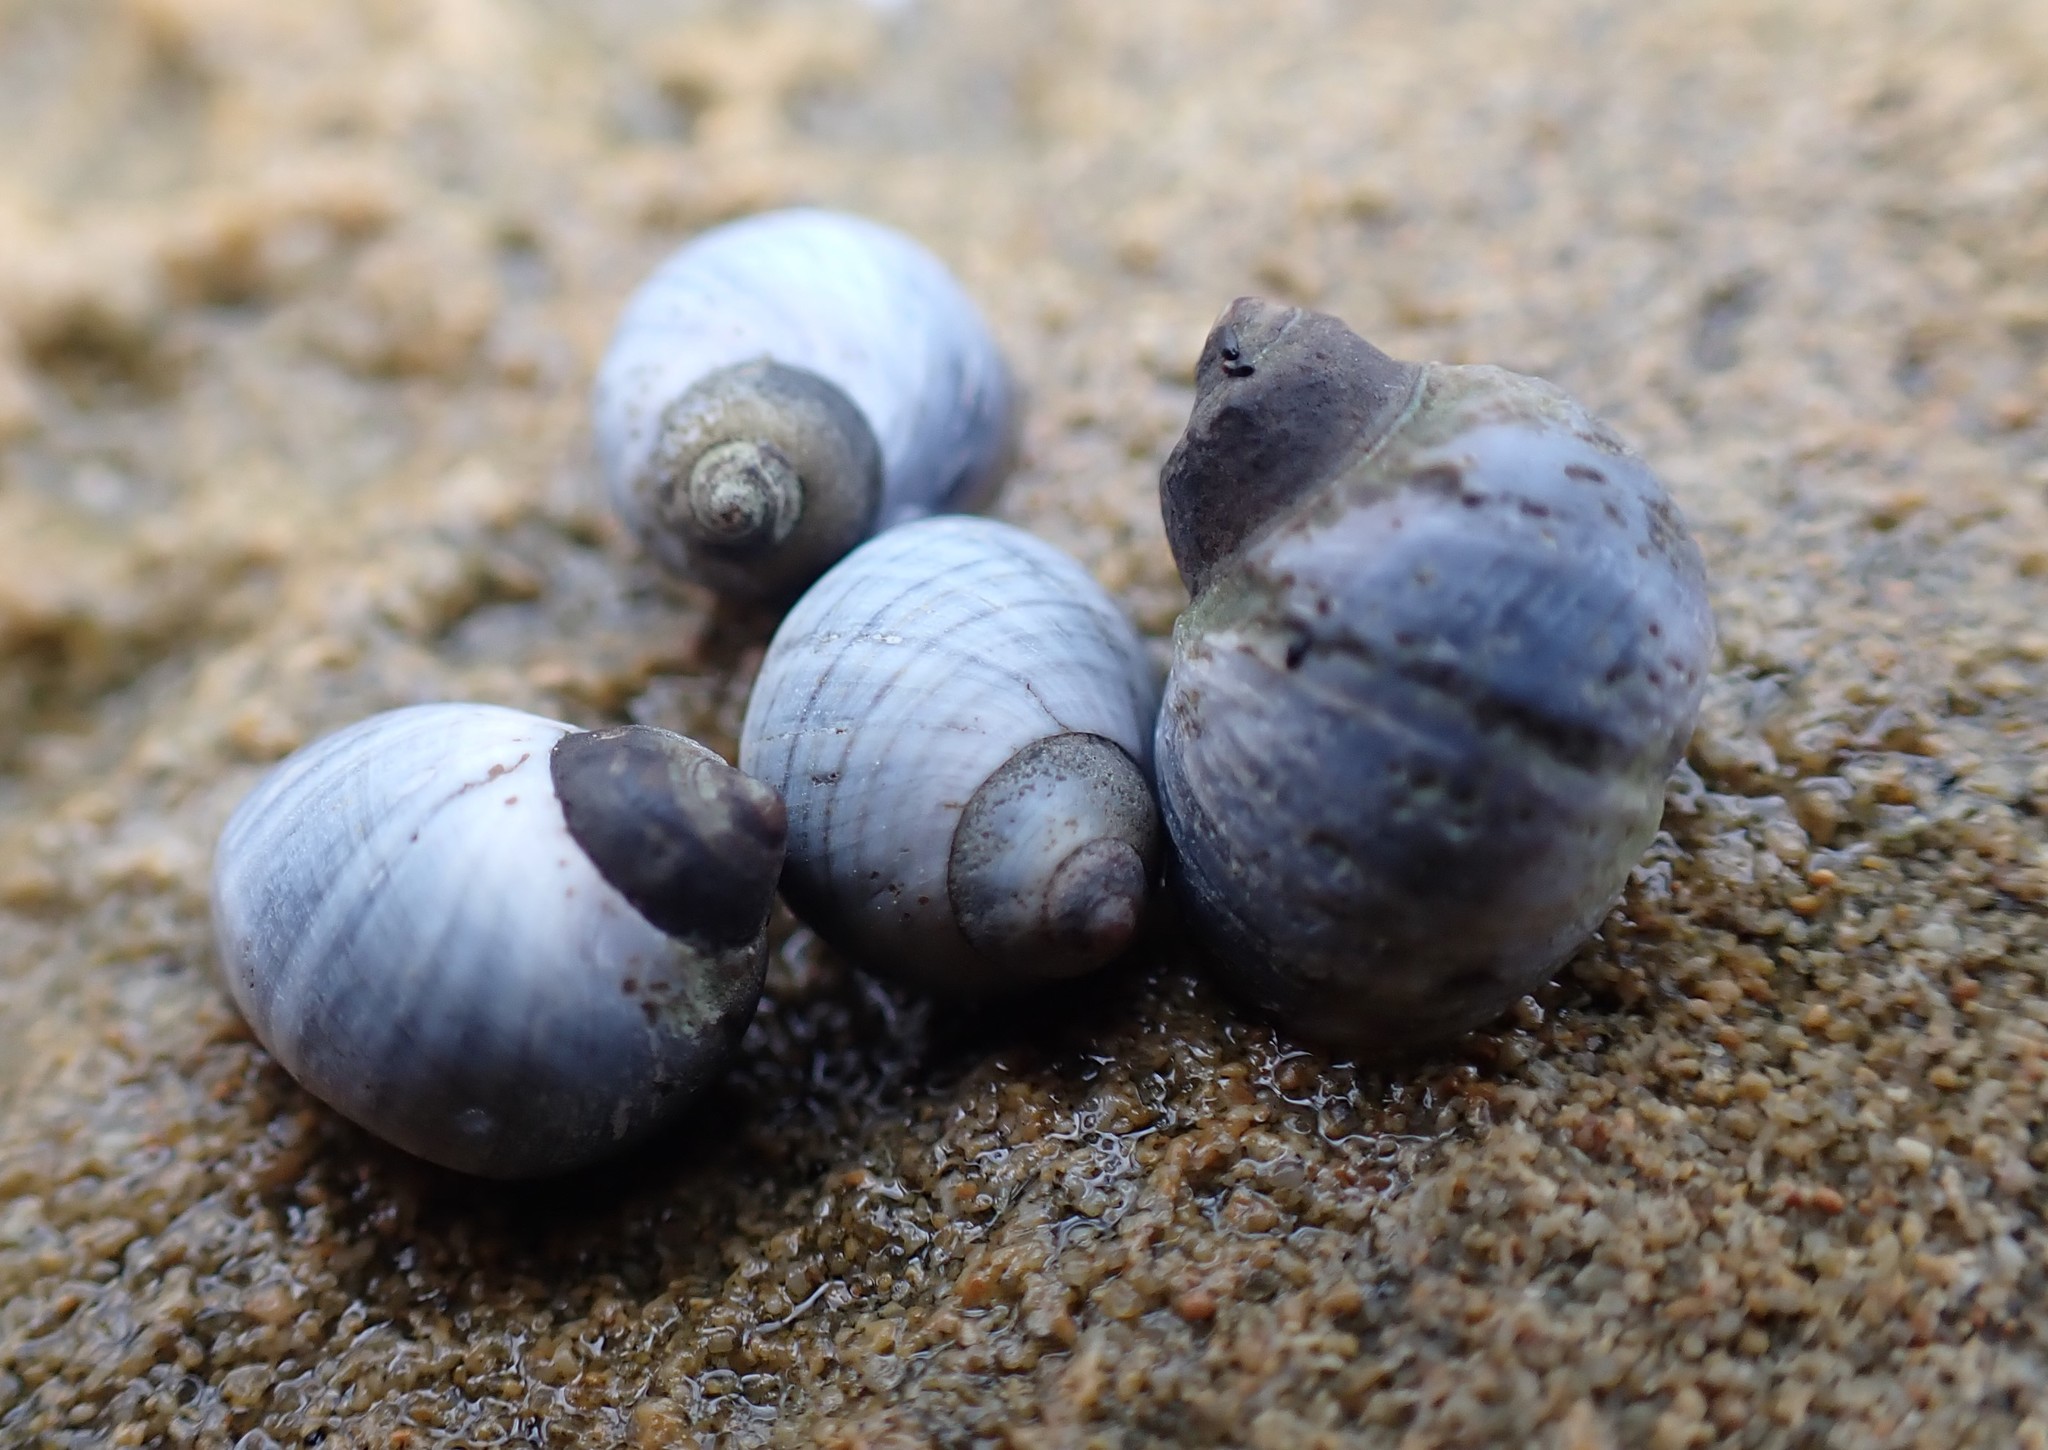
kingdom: Animalia
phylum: Mollusca
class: Gastropoda
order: Littorinimorpha
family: Littorinidae
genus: Austrolittorina
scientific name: Austrolittorina unifasciata
